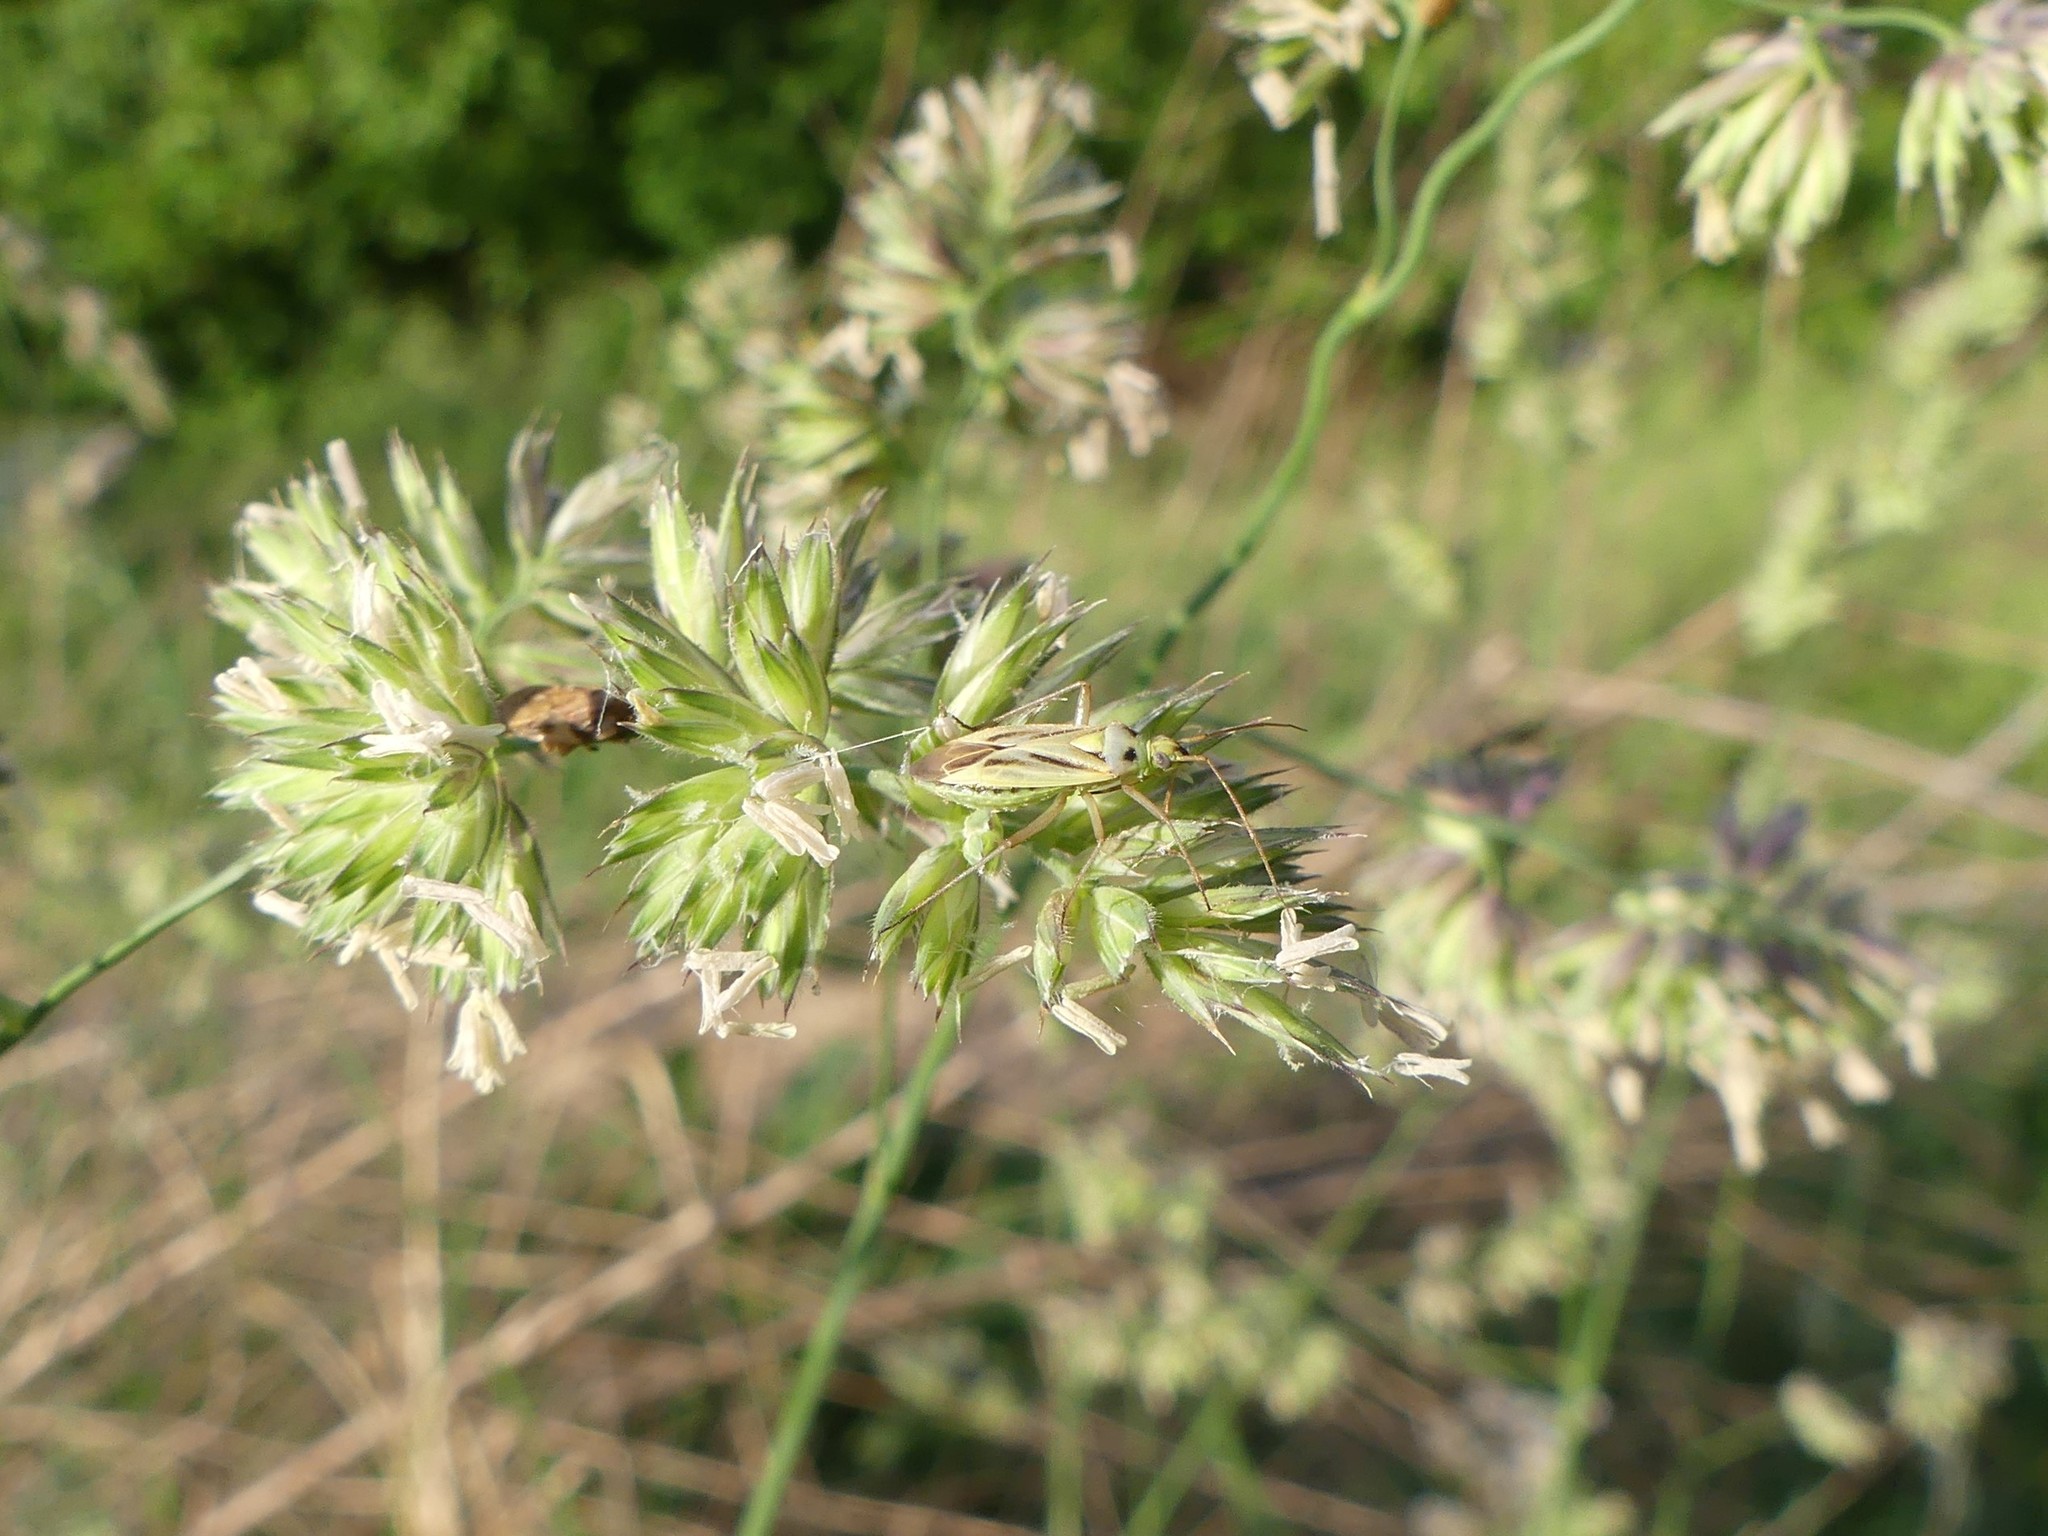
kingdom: Animalia
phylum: Arthropoda
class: Insecta
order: Hemiptera
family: Miridae
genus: Stenotus
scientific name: Stenotus binotatus
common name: Plant bug
